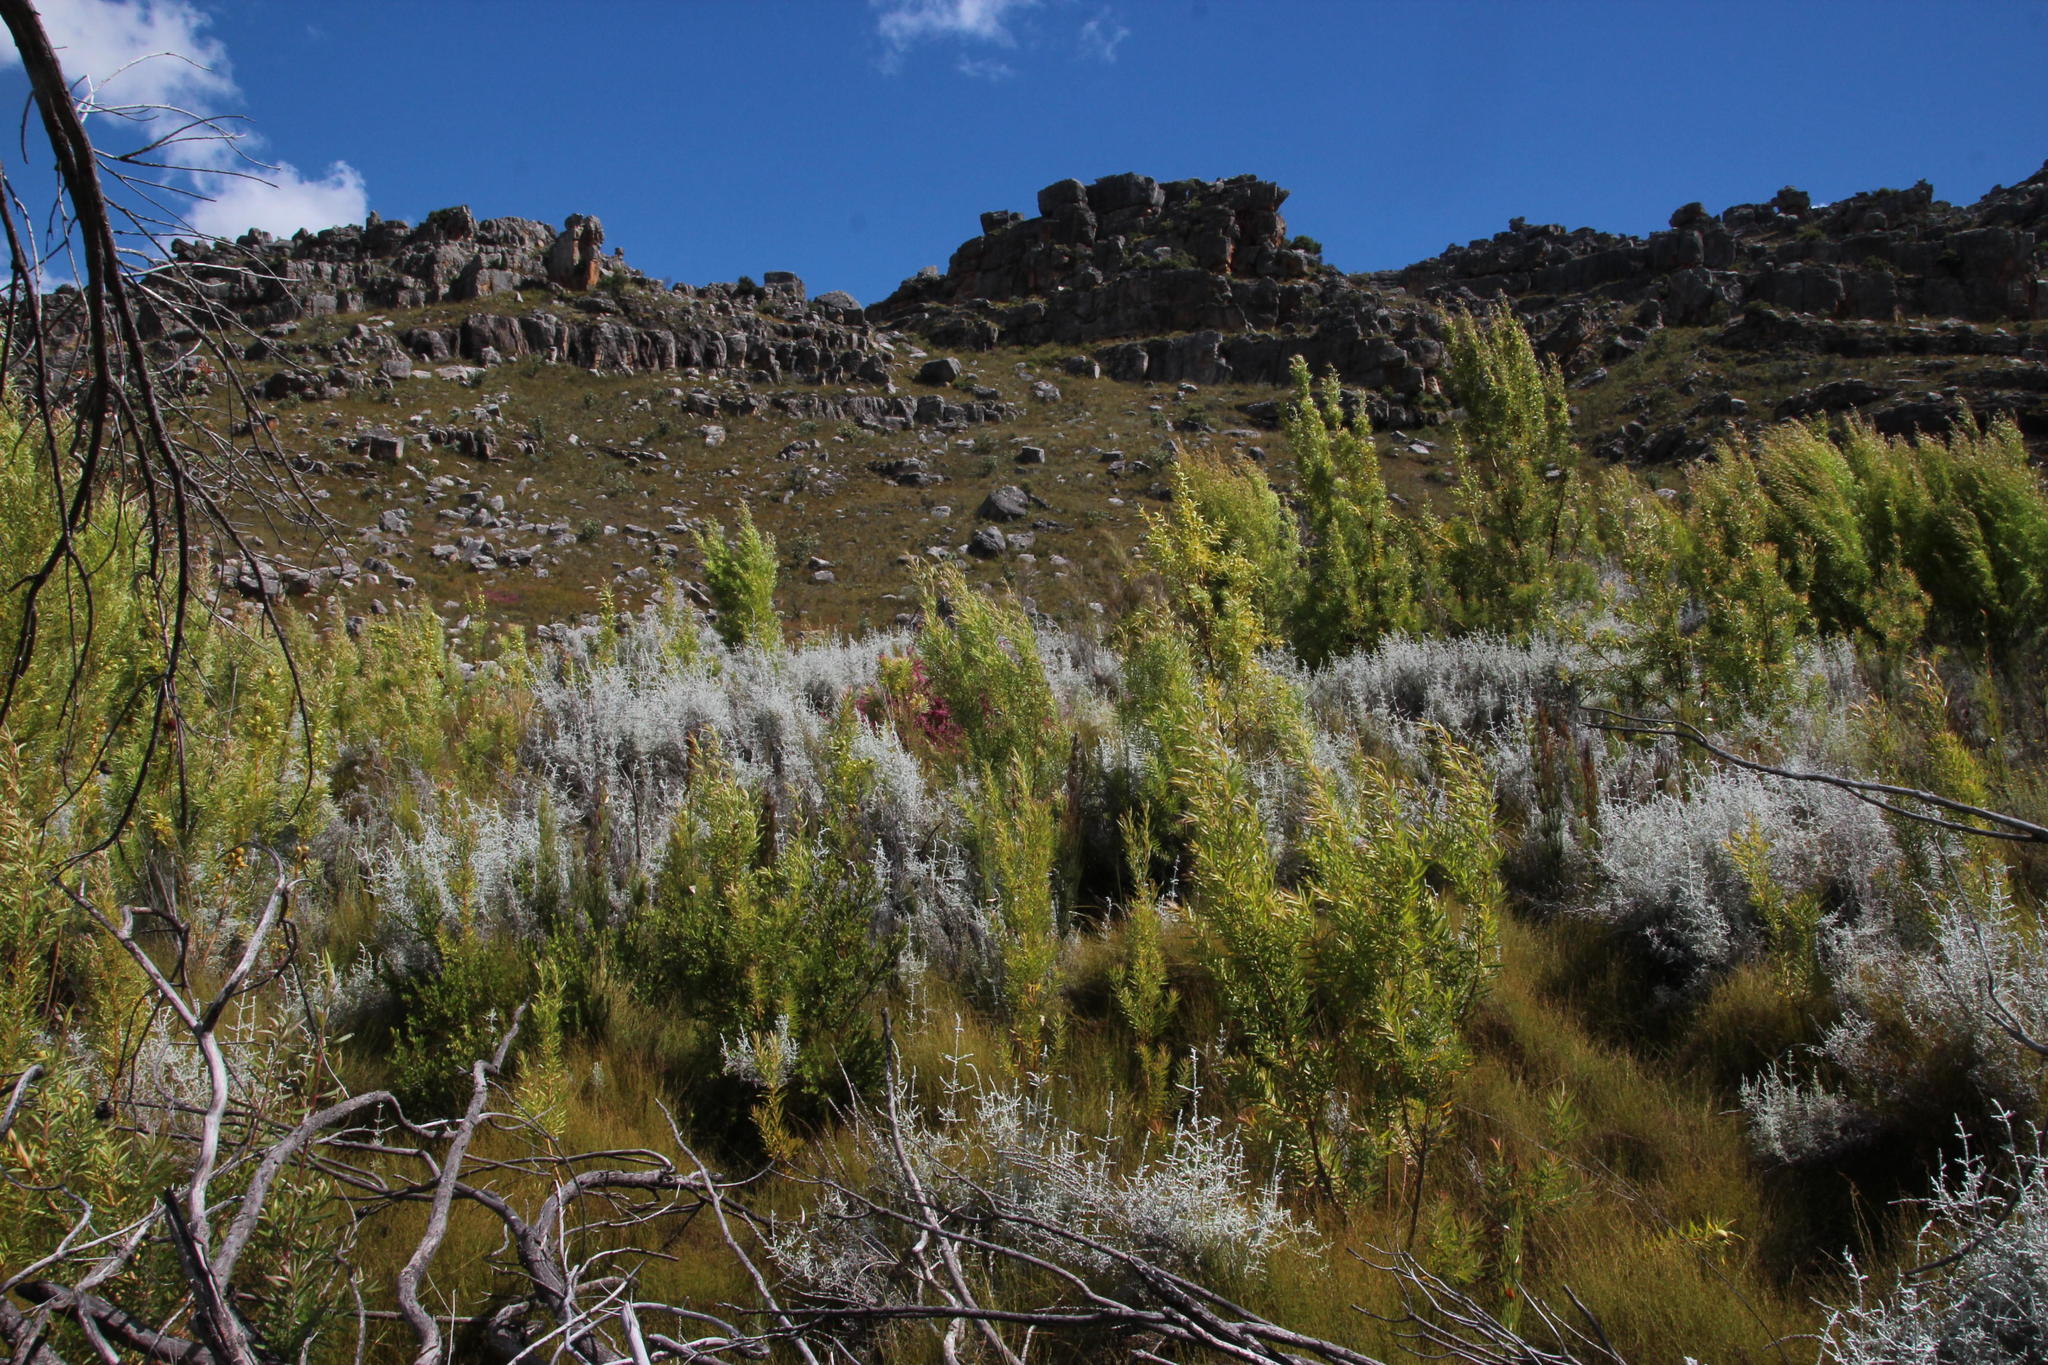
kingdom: Plantae
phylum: Tracheophyta
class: Magnoliopsida
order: Asterales
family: Asteraceae
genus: Seriphium
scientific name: Seriphium plumosum
